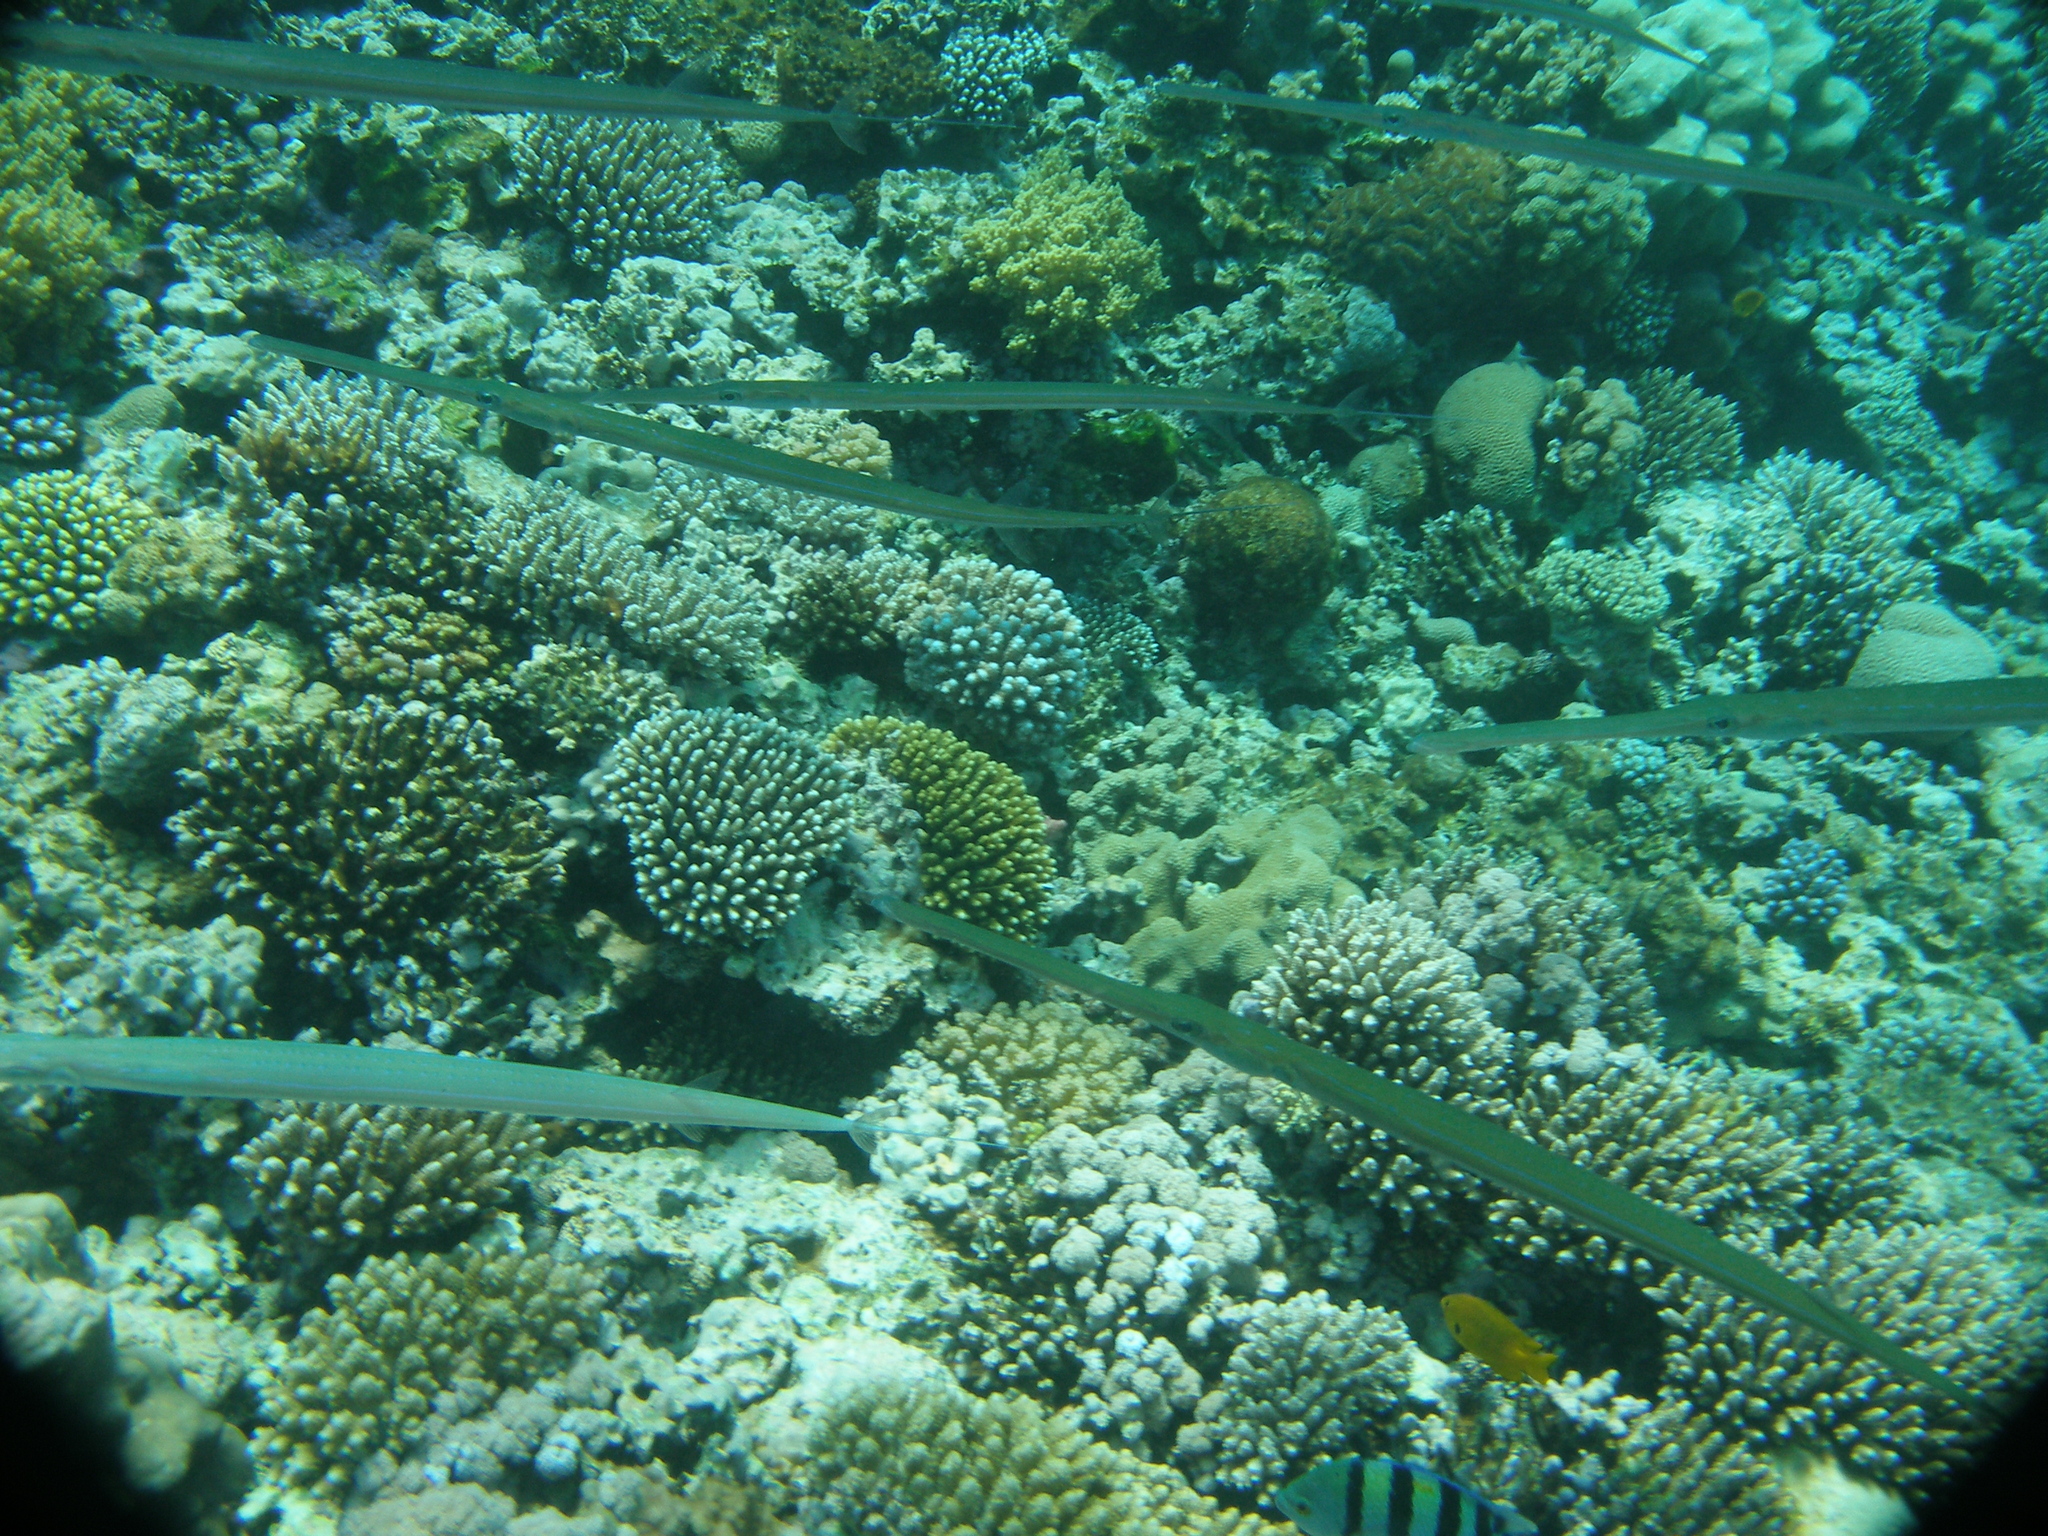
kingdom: Animalia
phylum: Chordata
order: Syngnathiformes
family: Fistulariidae
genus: Fistularia
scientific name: Fistularia commersonii
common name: Bluespotted cornetfish
